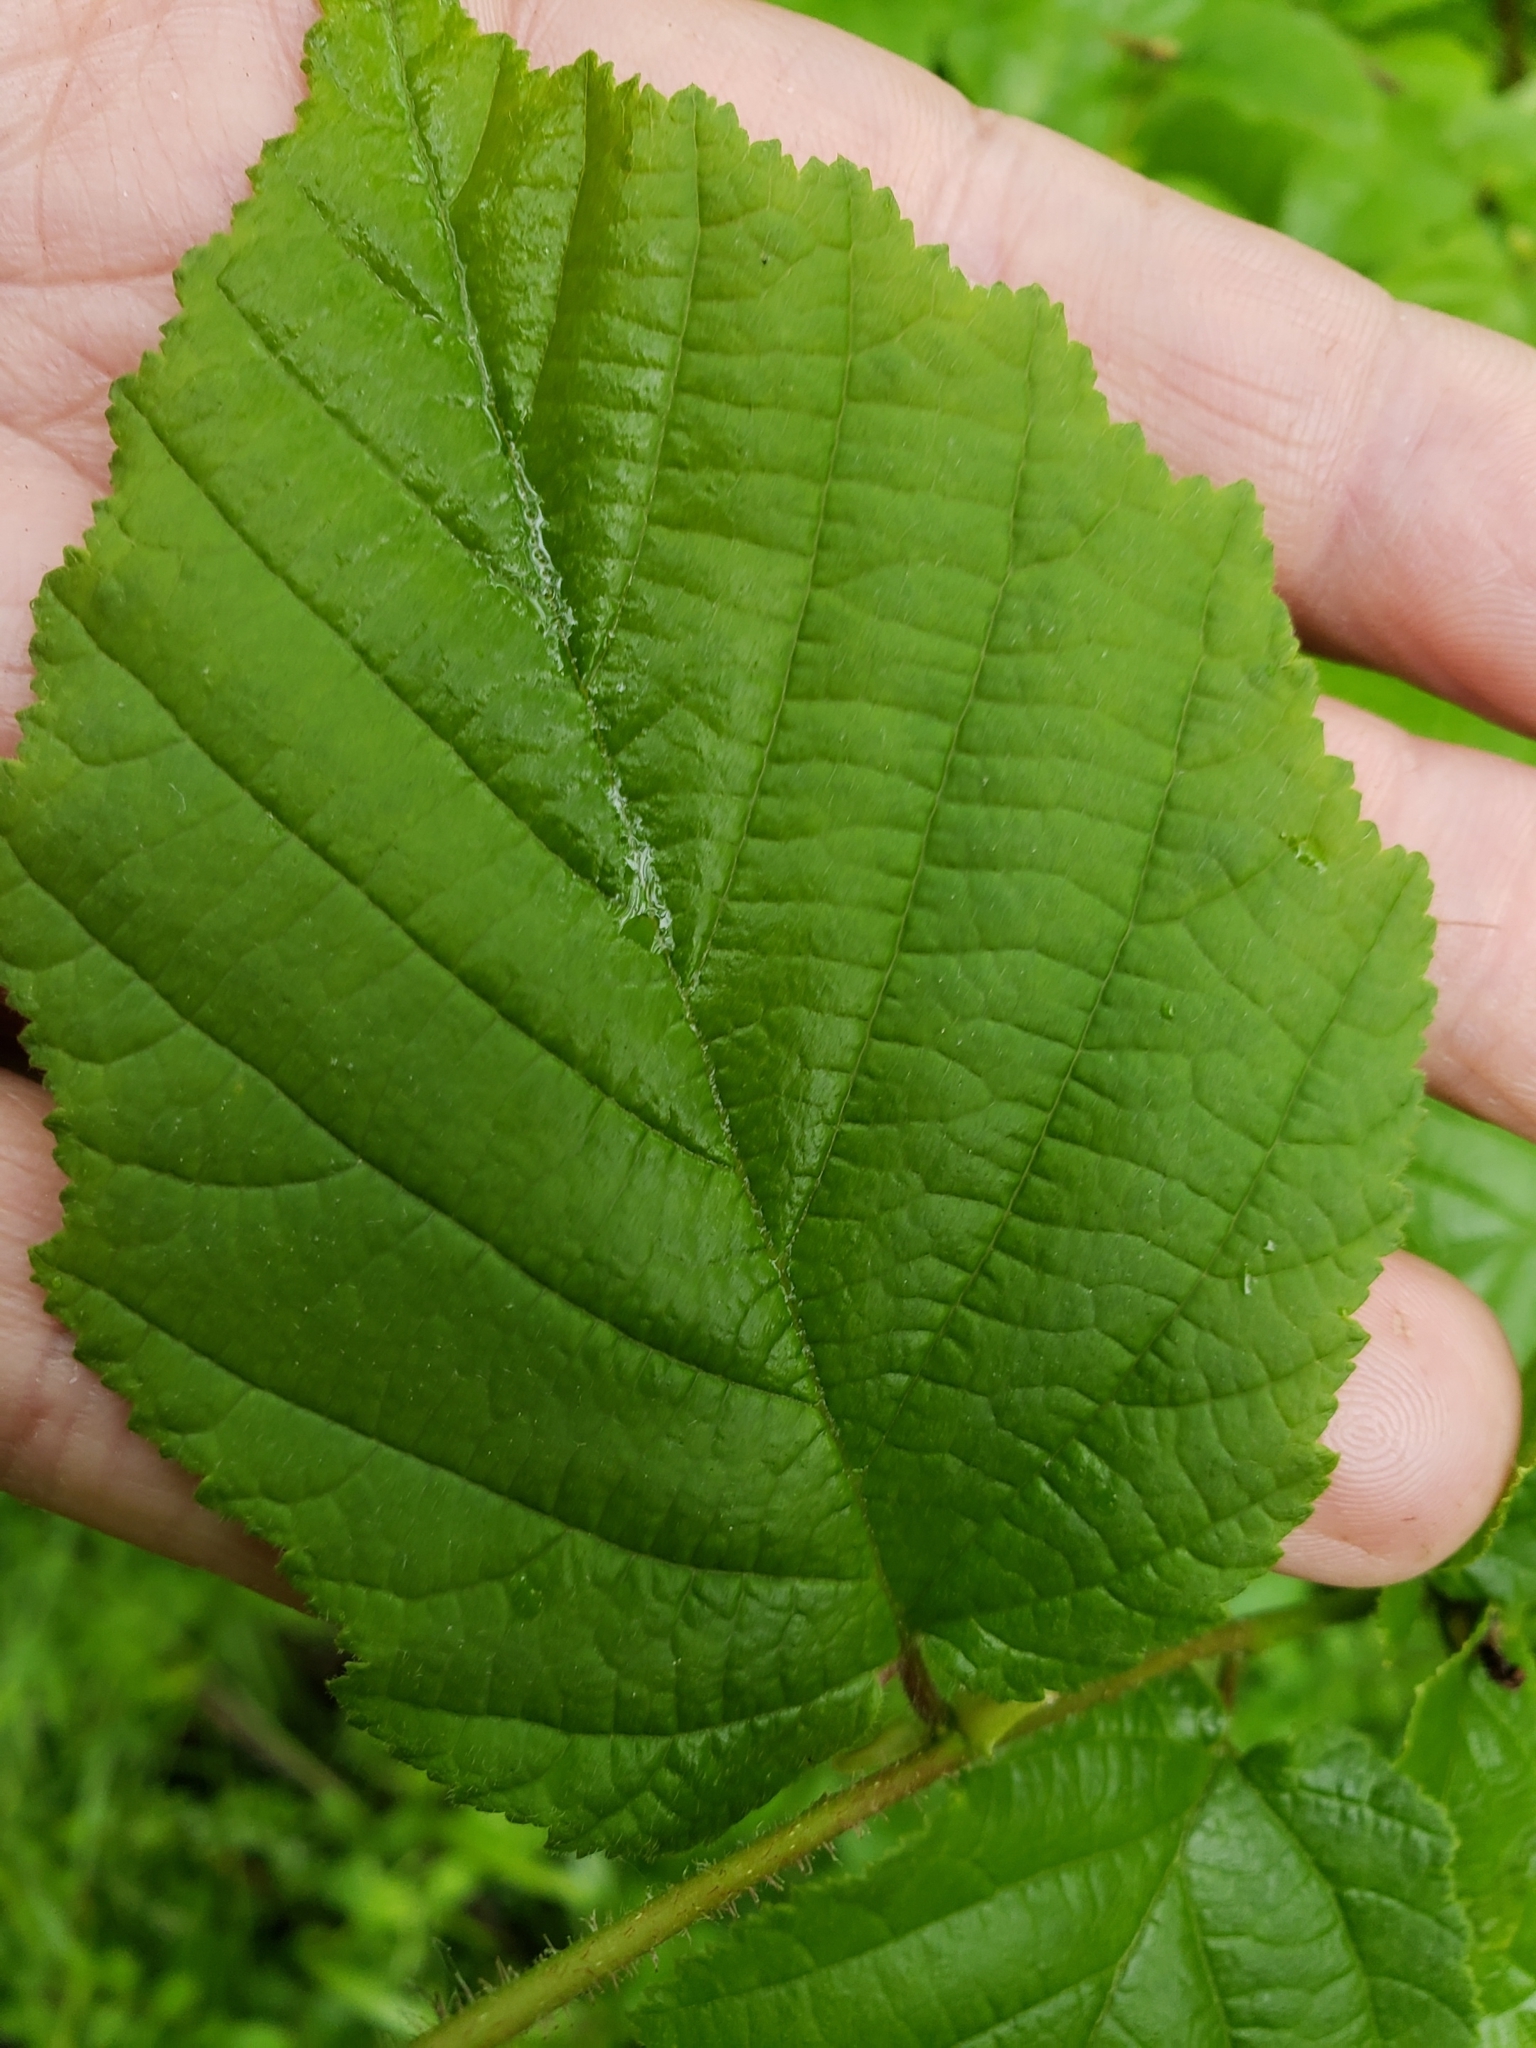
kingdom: Plantae
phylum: Tracheophyta
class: Magnoliopsida
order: Fagales
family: Betulaceae
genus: Corylus
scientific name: Corylus avellana
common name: European hazel
